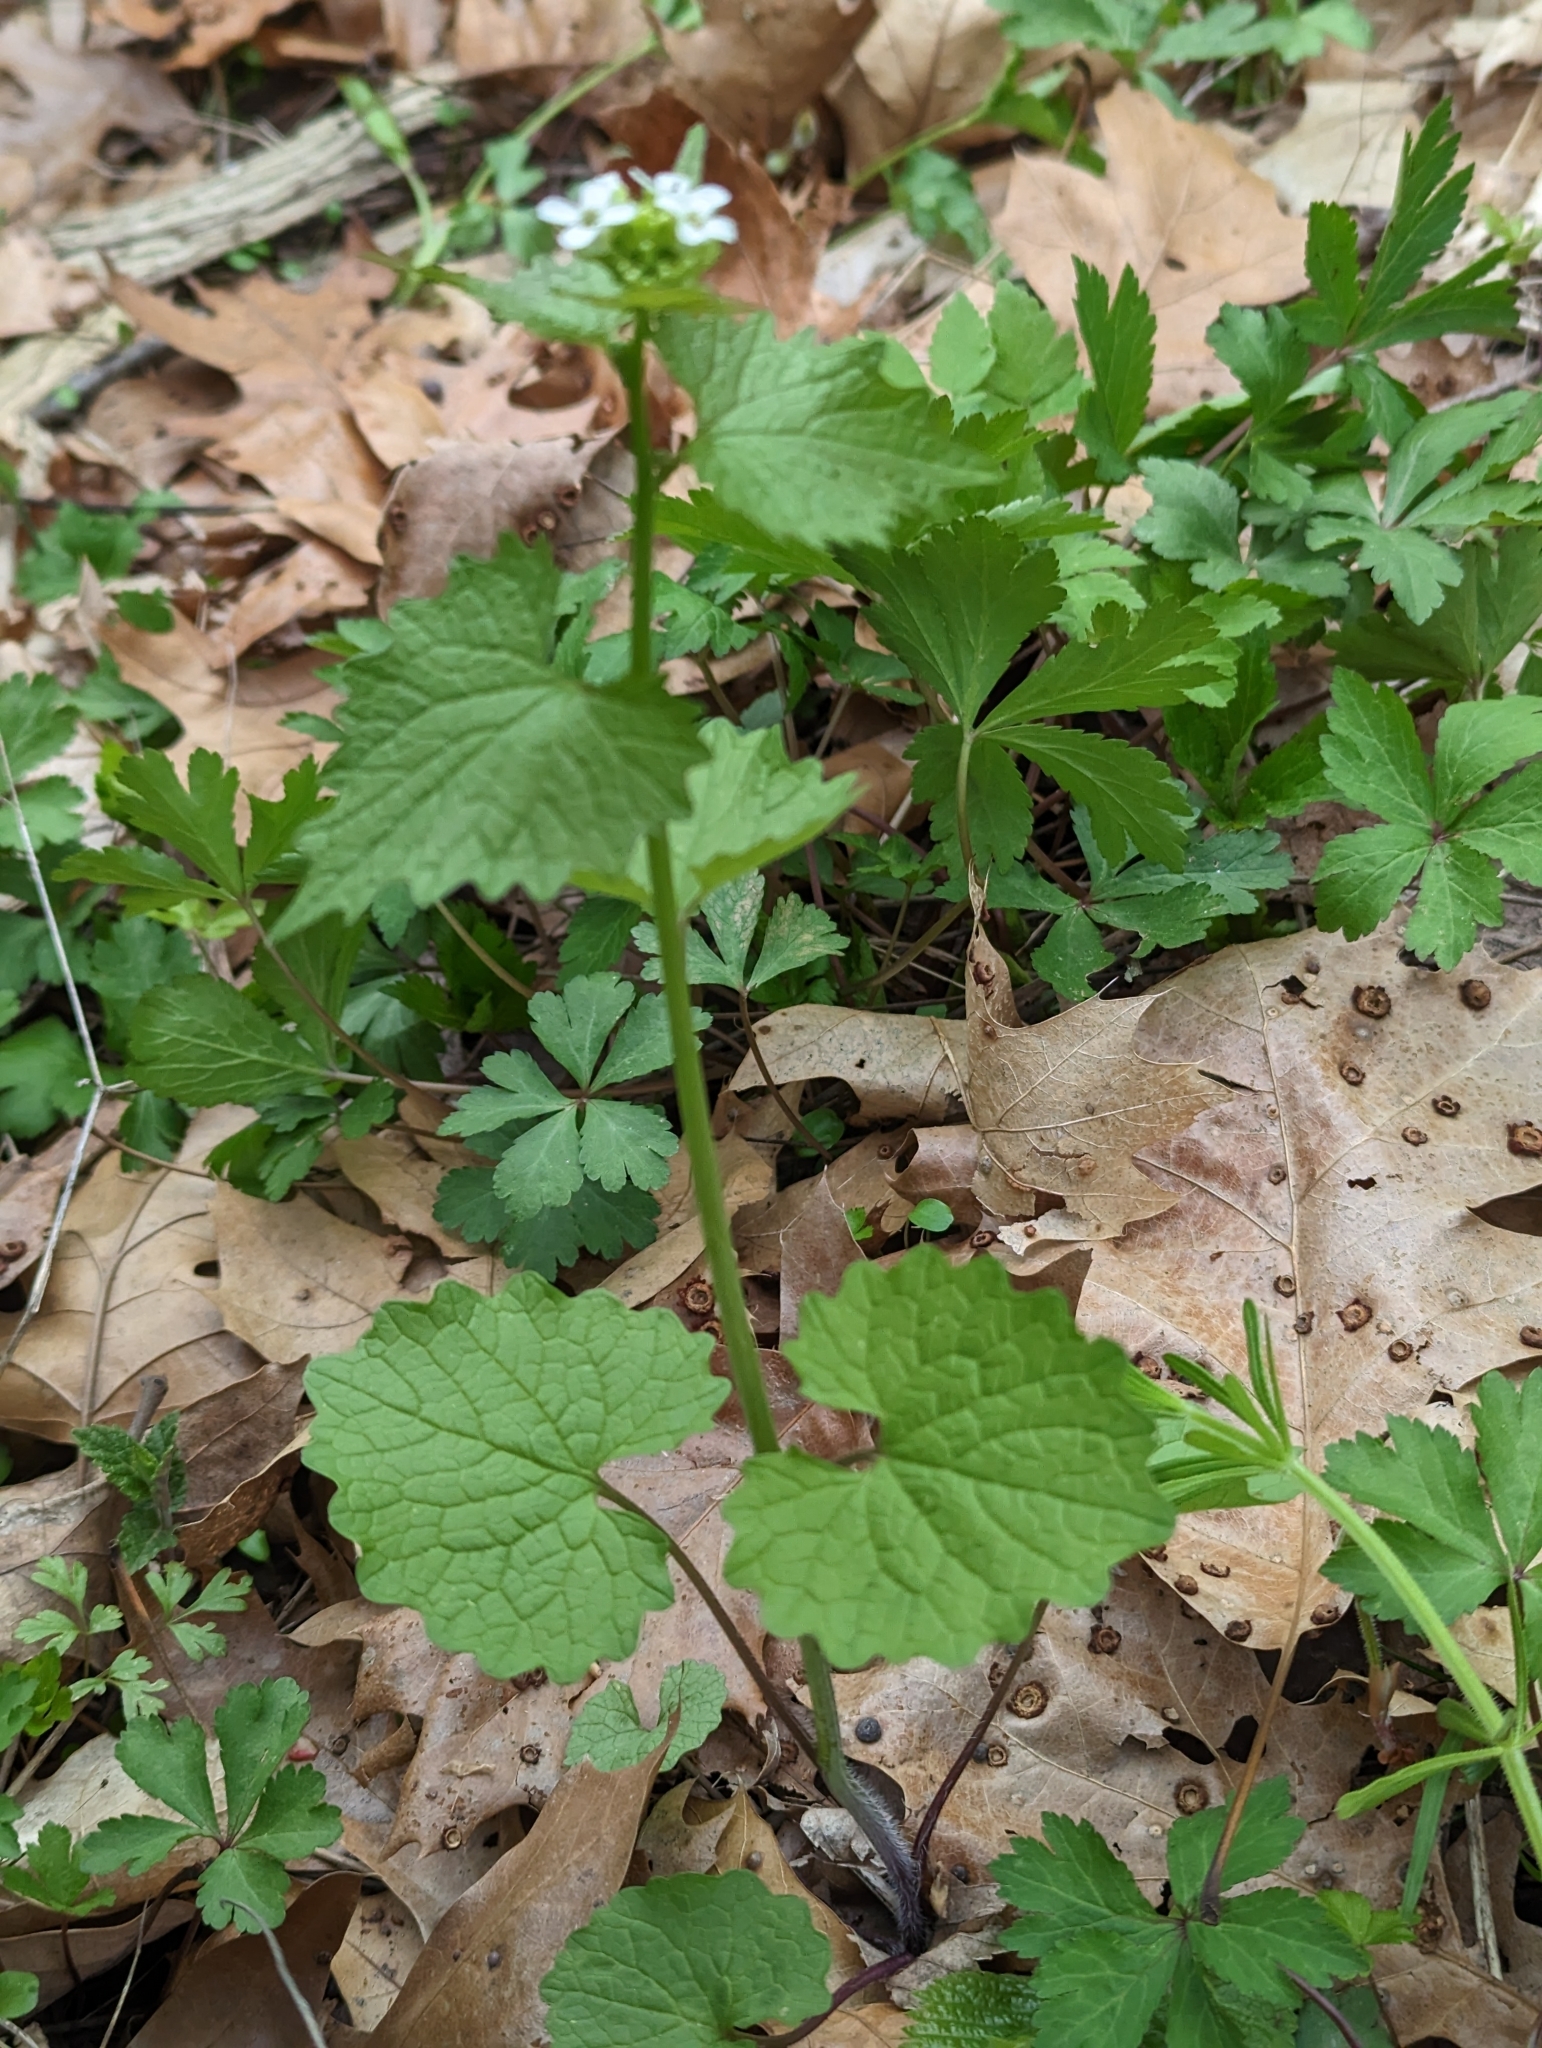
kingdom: Plantae
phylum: Tracheophyta
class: Magnoliopsida
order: Brassicales
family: Brassicaceae
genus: Alliaria
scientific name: Alliaria petiolata
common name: Garlic mustard
